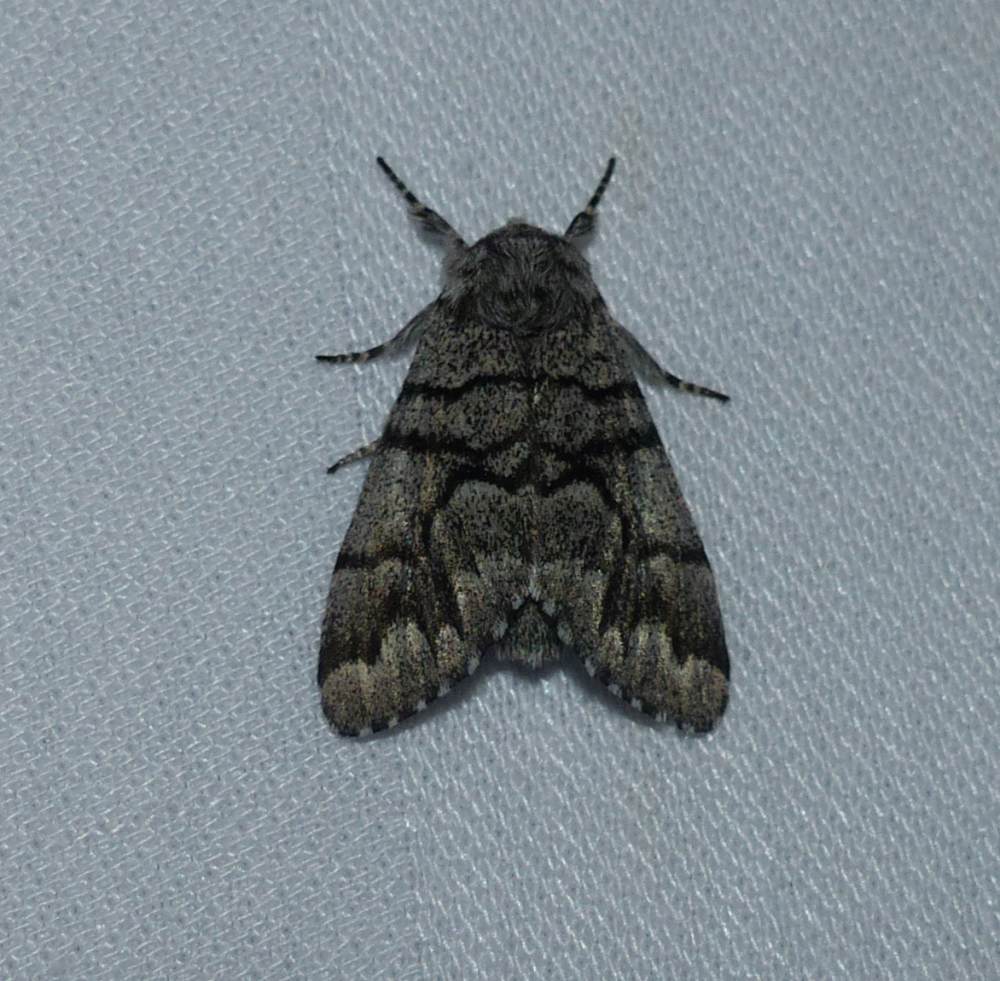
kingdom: Animalia
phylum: Arthropoda
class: Insecta
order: Lepidoptera
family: Noctuidae
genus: Panthea
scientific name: Panthea furcilla
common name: Eastern panthea moth
